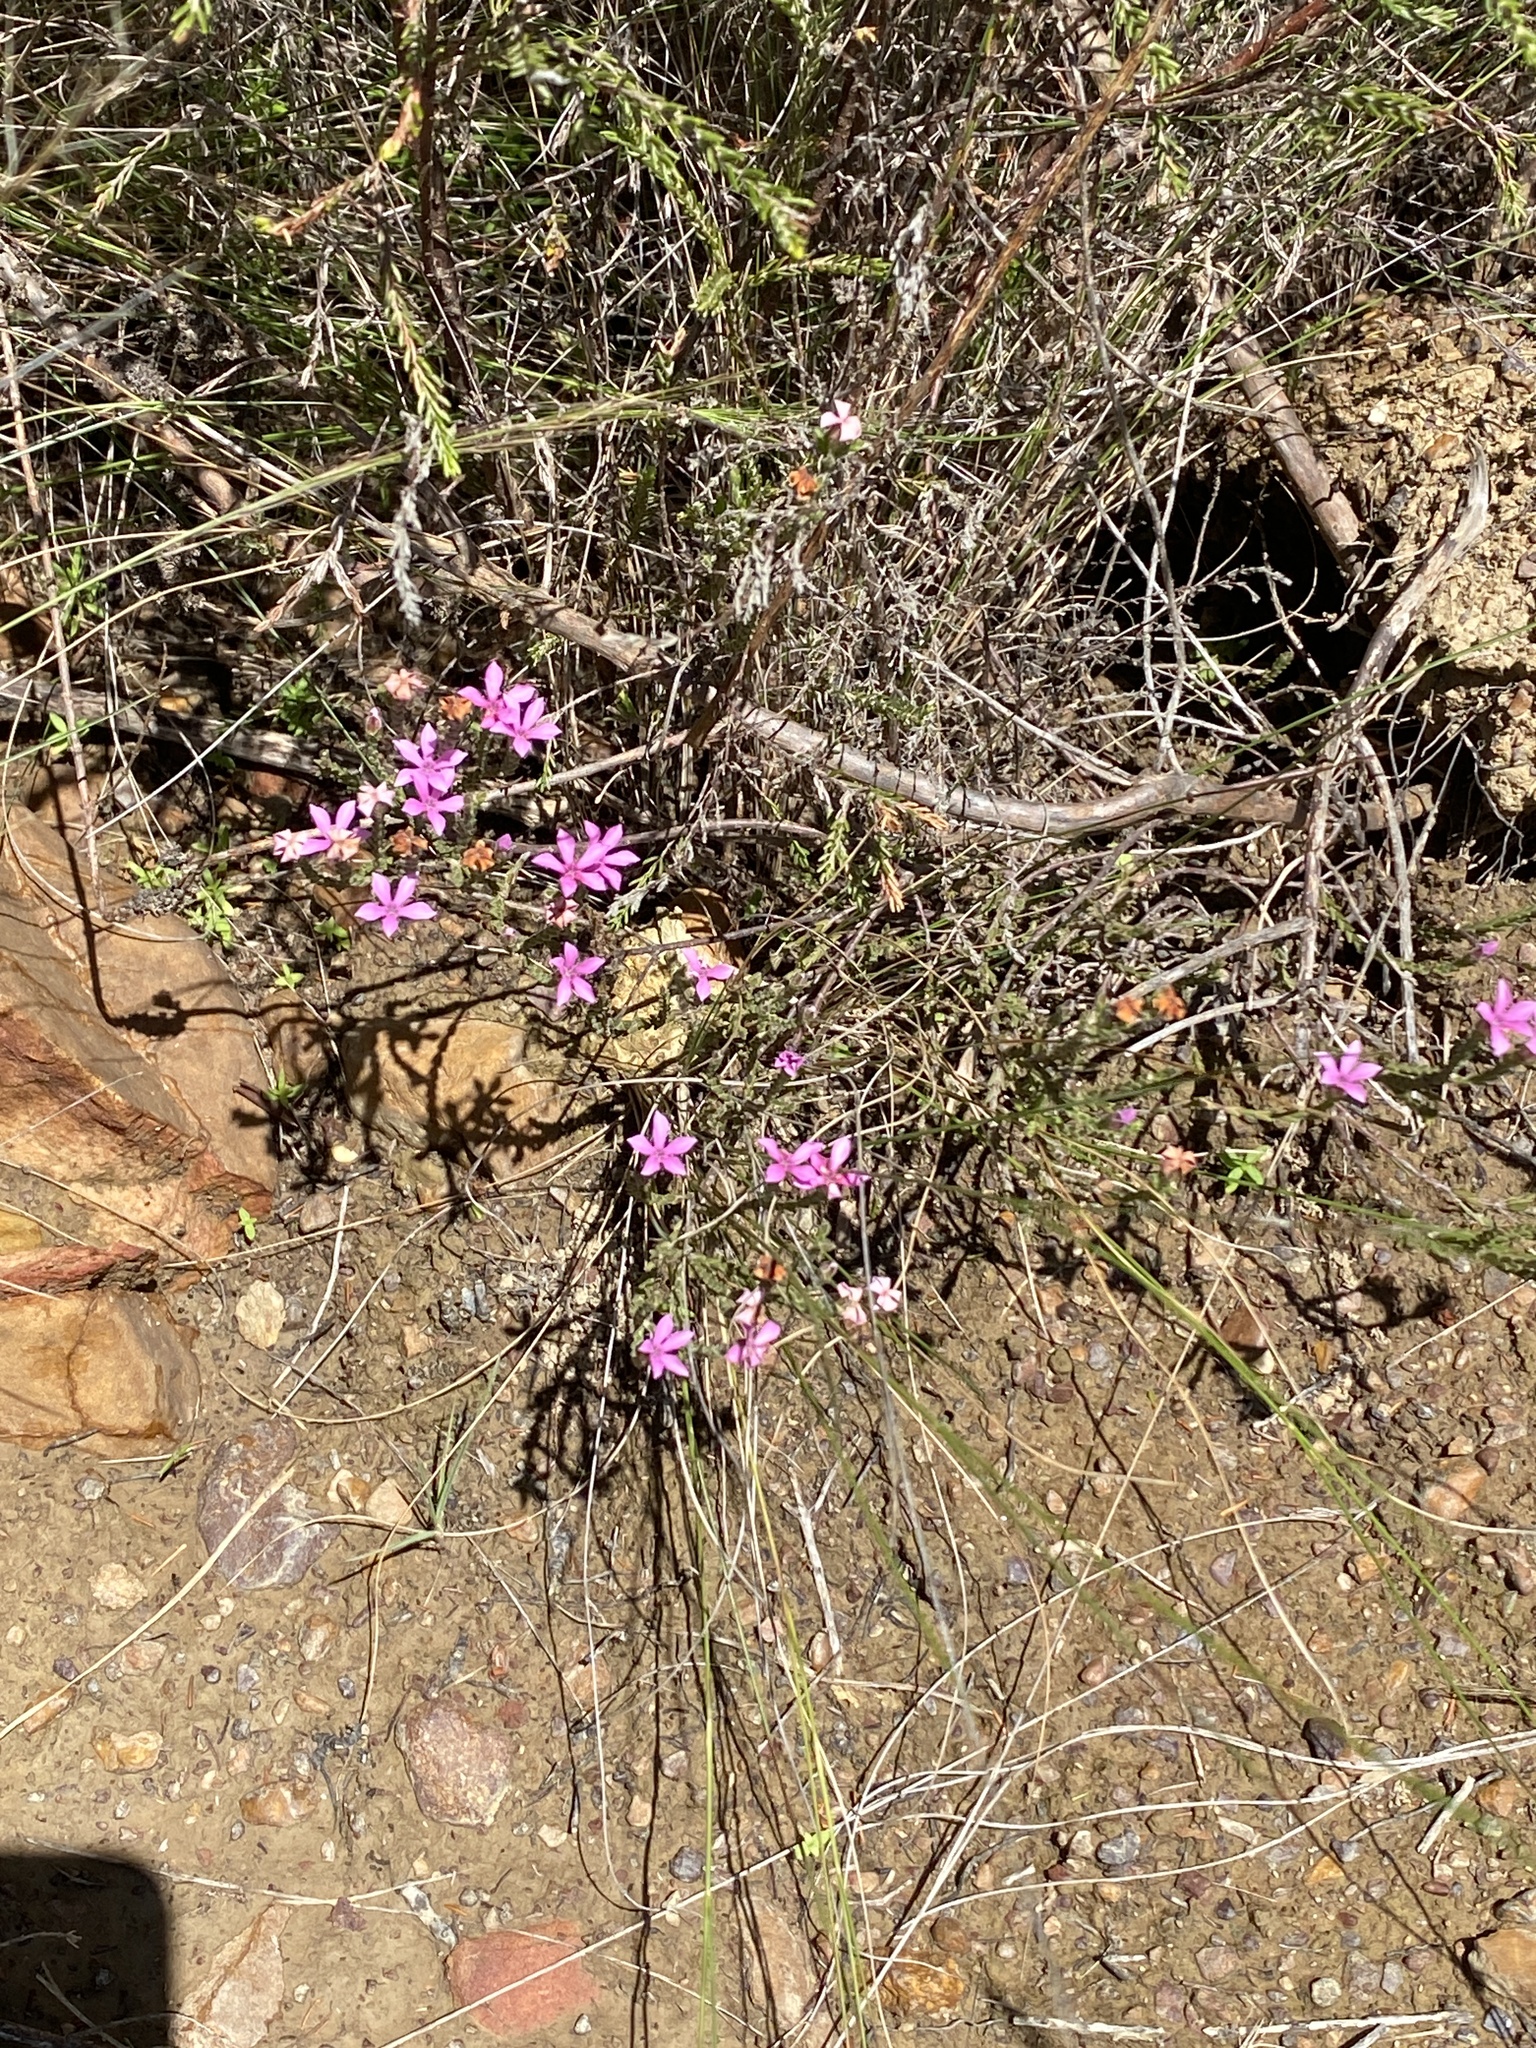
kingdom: Plantae
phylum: Tracheophyta
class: Magnoliopsida
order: Sapindales
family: Rutaceae
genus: Acmadenia
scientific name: Acmadenia laxa
